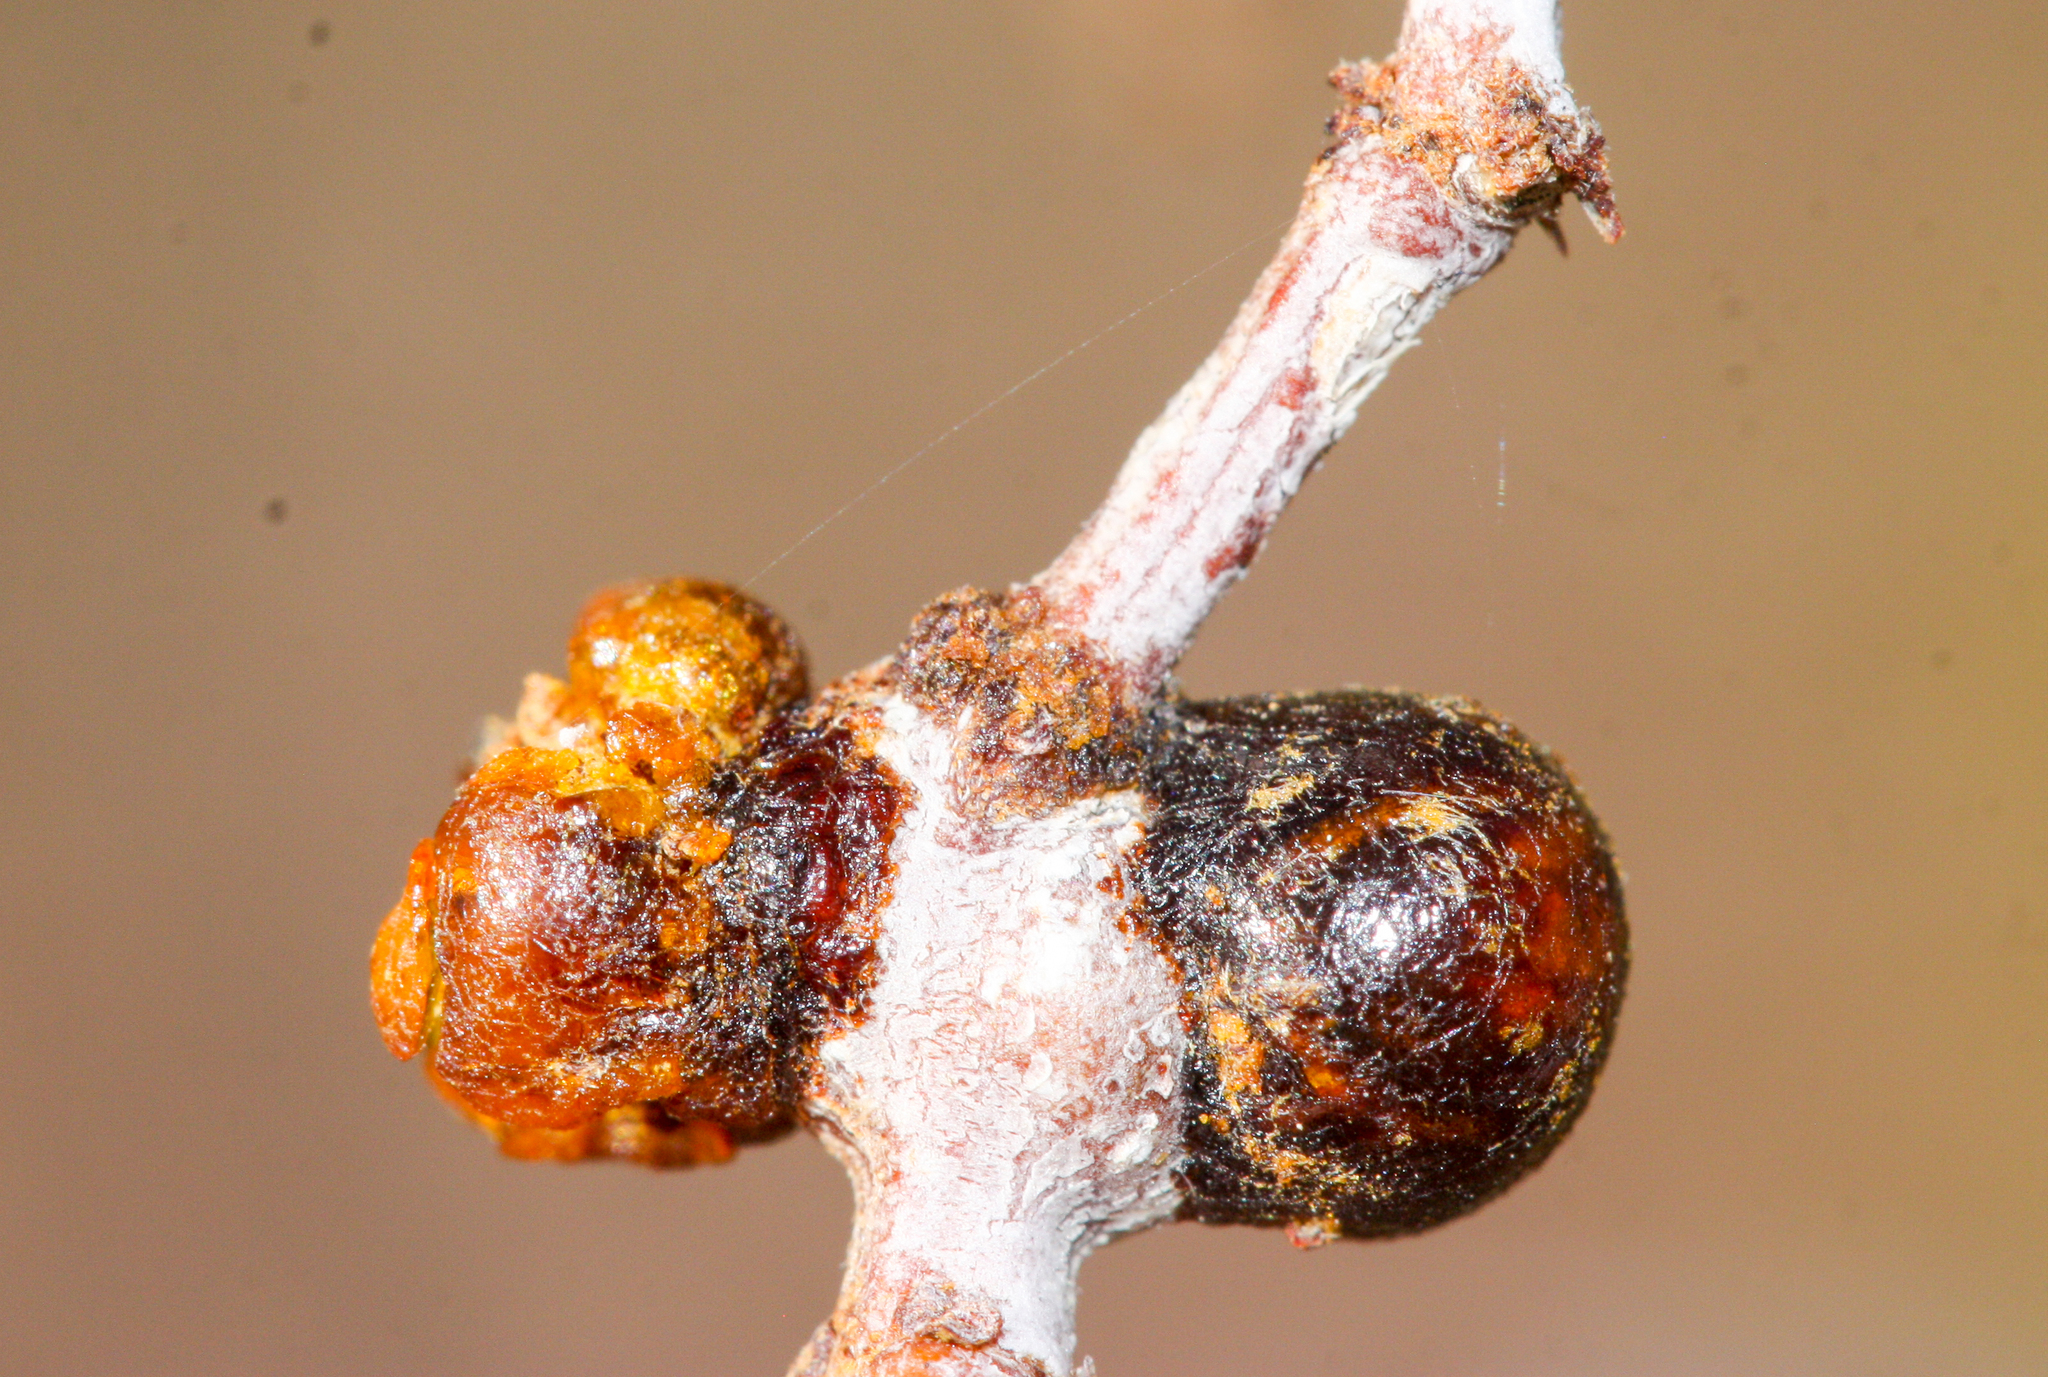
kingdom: Animalia
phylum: Arthropoda
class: Insecta
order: Diptera
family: Cecidomyiidae
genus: Asphondylia
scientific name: Asphondylia resinosa
